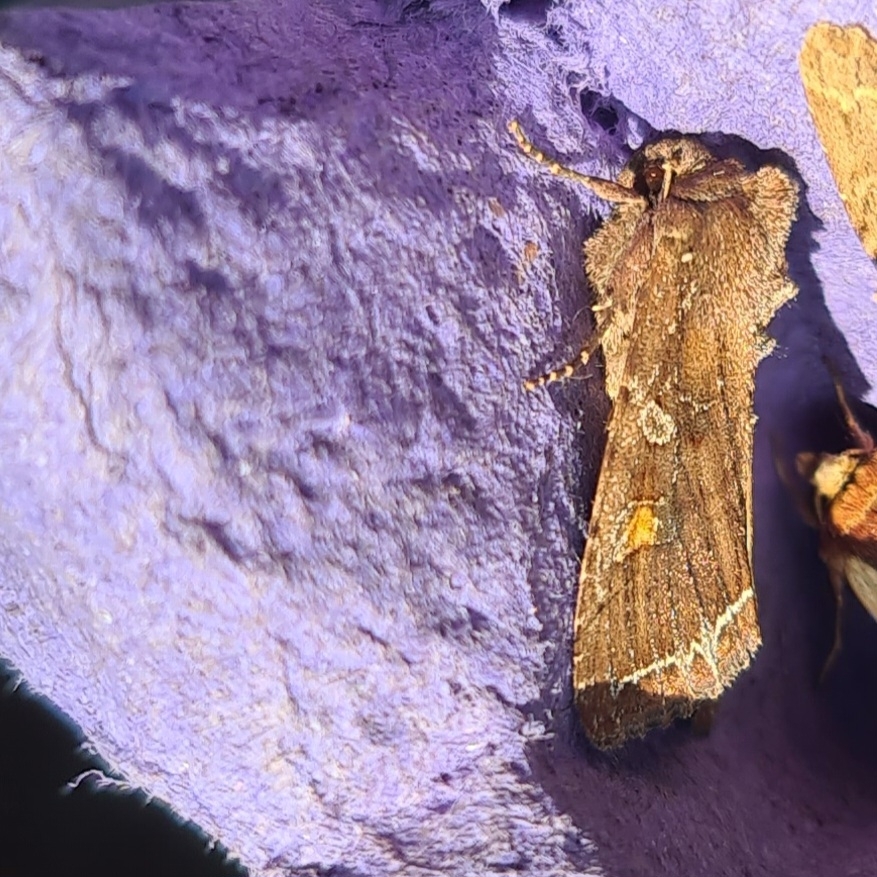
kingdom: Animalia
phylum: Arthropoda
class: Insecta
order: Lepidoptera
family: Noctuidae
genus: Lacanobia
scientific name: Lacanobia oleracea
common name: Bright-line brown-eye
